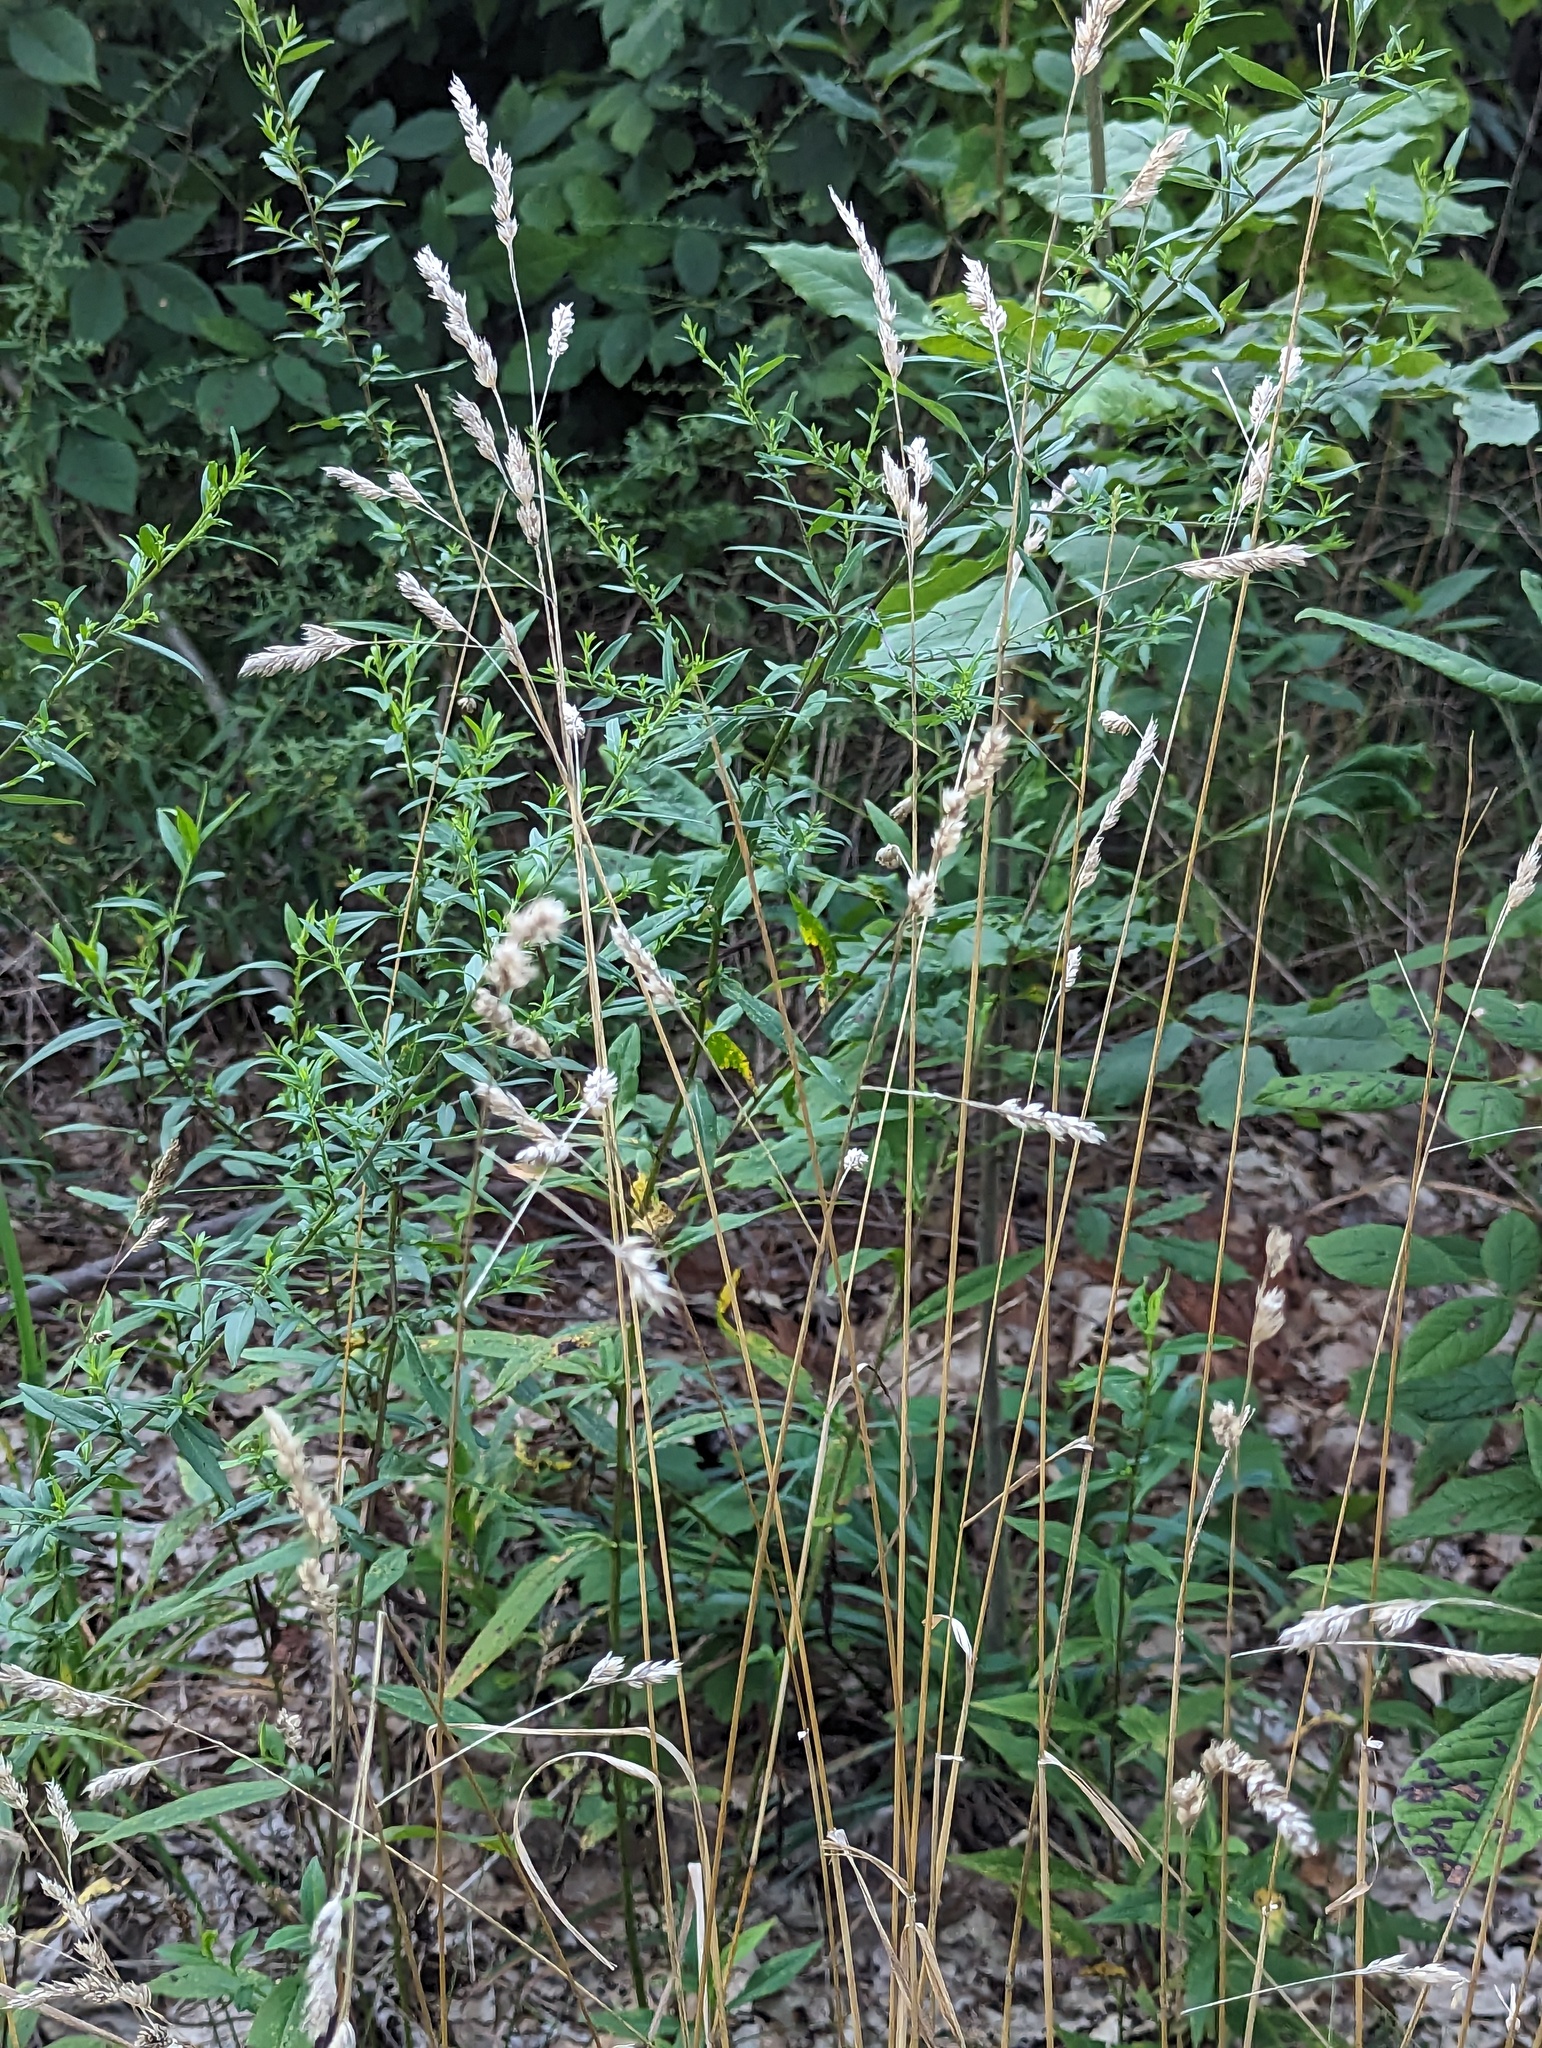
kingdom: Plantae
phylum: Tracheophyta
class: Liliopsida
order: Poales
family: Poaceae
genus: Dactylis
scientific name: Dactylis glomerata
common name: Orchardgrass
